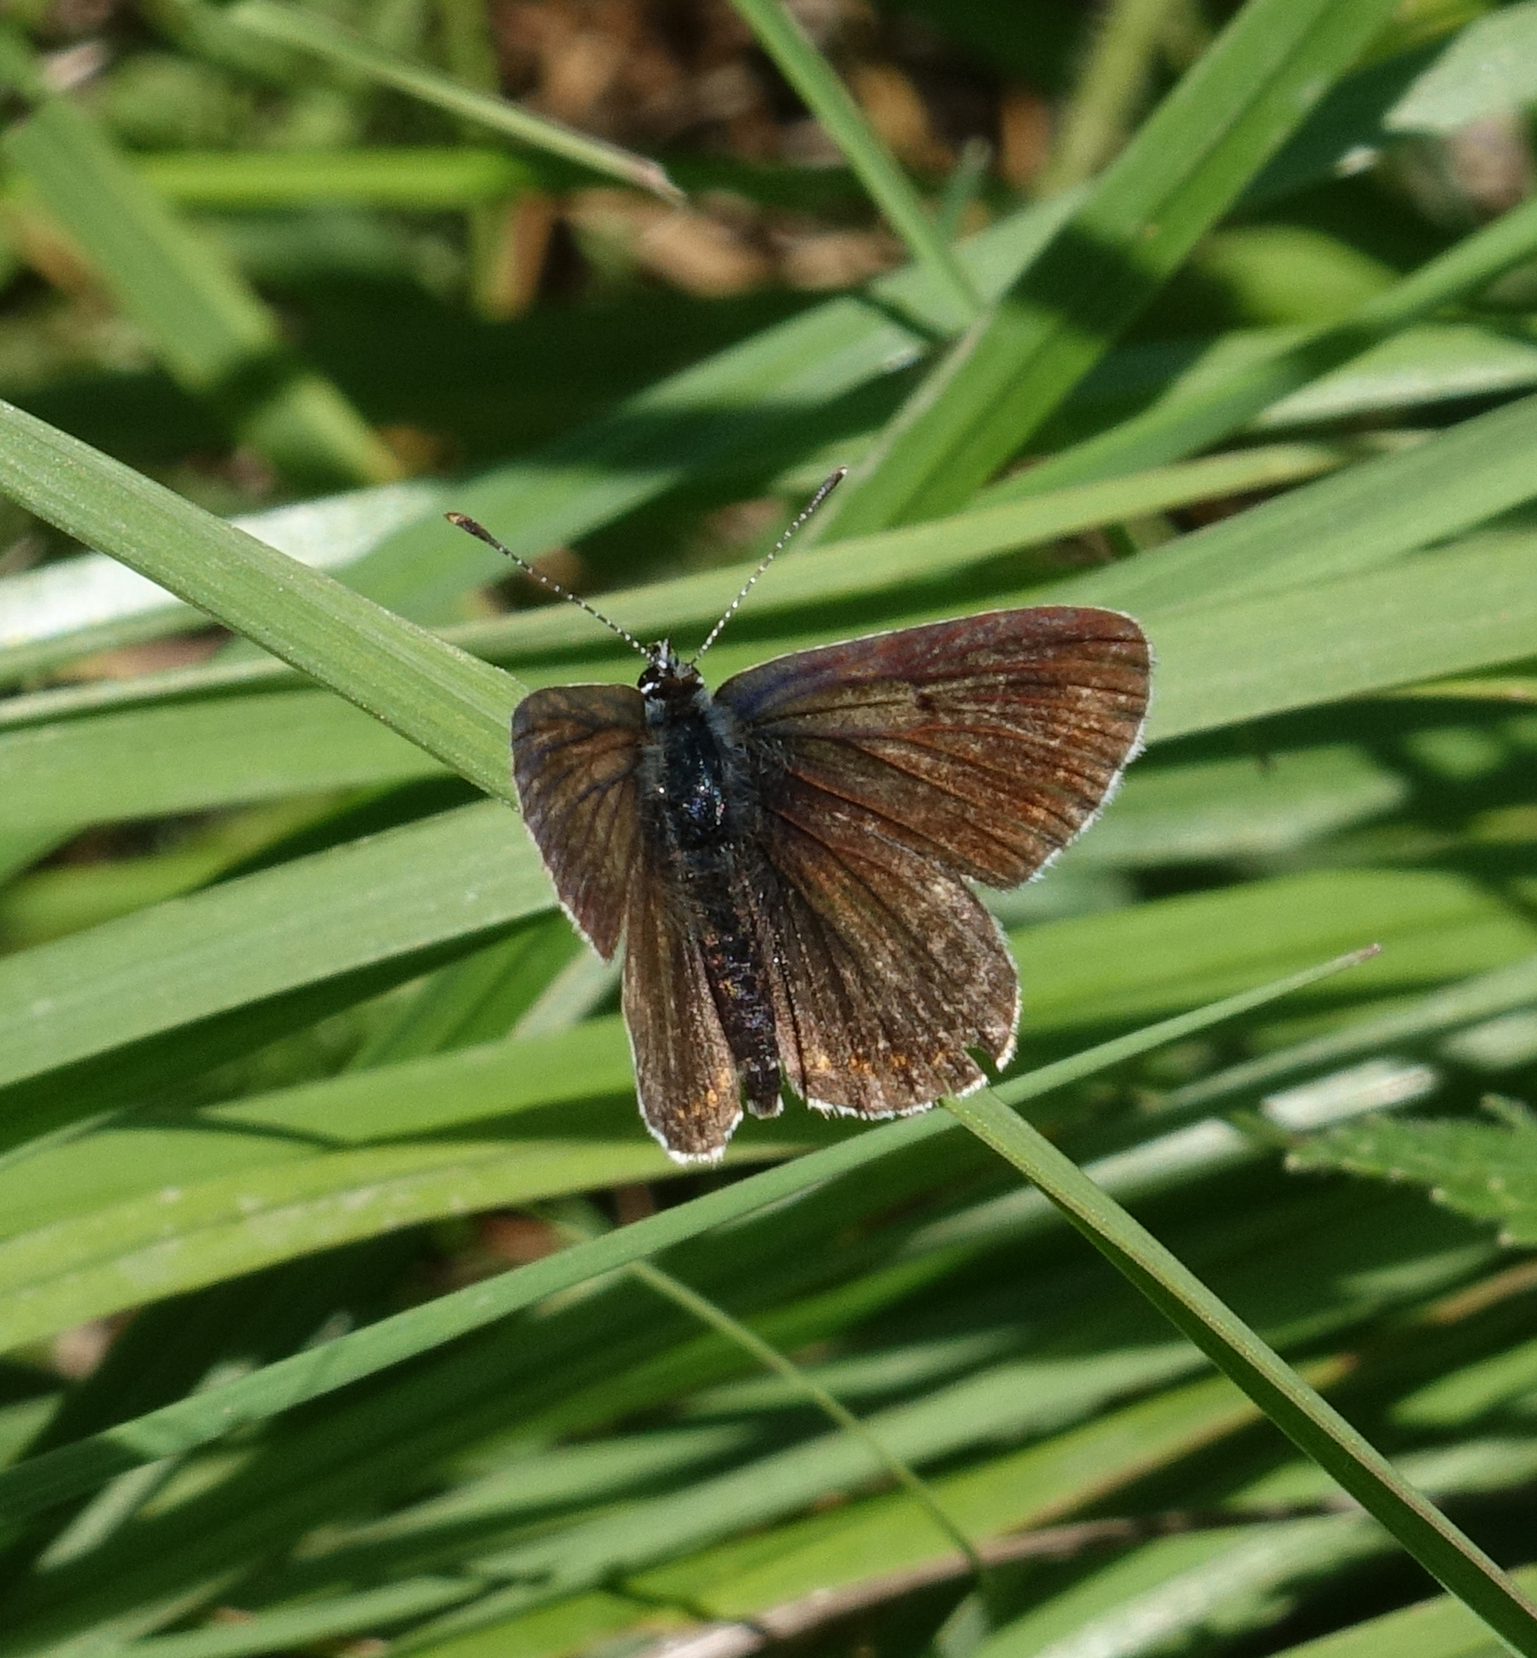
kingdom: Animalia
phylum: Arthropoda
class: Insecta
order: Lepidoptera
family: Lycaenidae
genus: Aricia
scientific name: Aricia artaxerxes
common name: Northern brown argus
